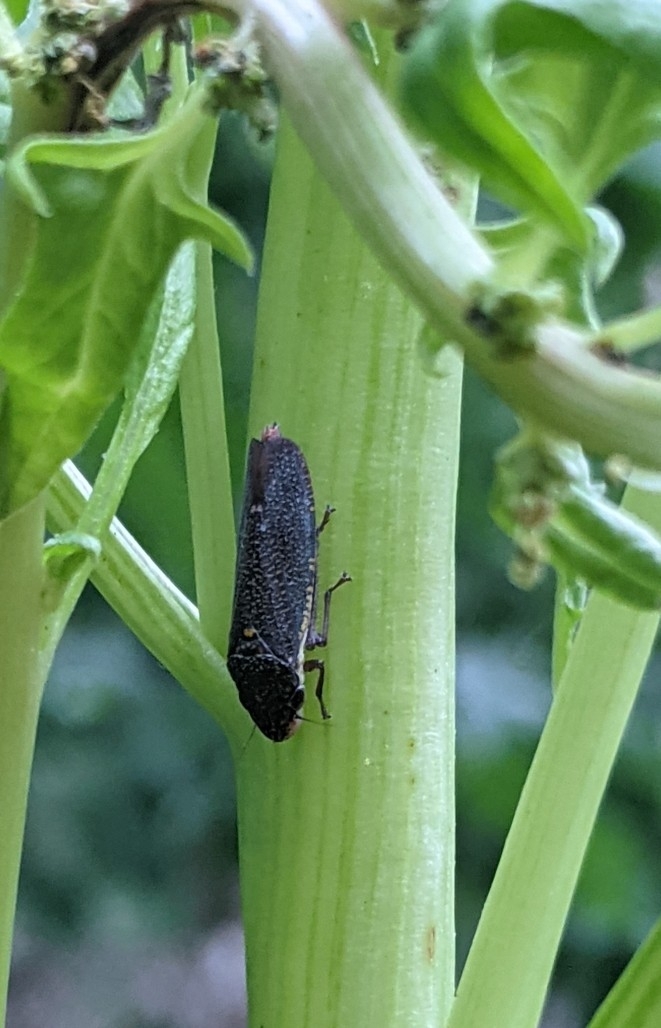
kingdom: Animalia
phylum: Arthropoda
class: Insecta
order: Hemiptera
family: Cicadellidae
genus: Paraulacizes
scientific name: Paraulacizes irrorata
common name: Speckled sharpshooter
